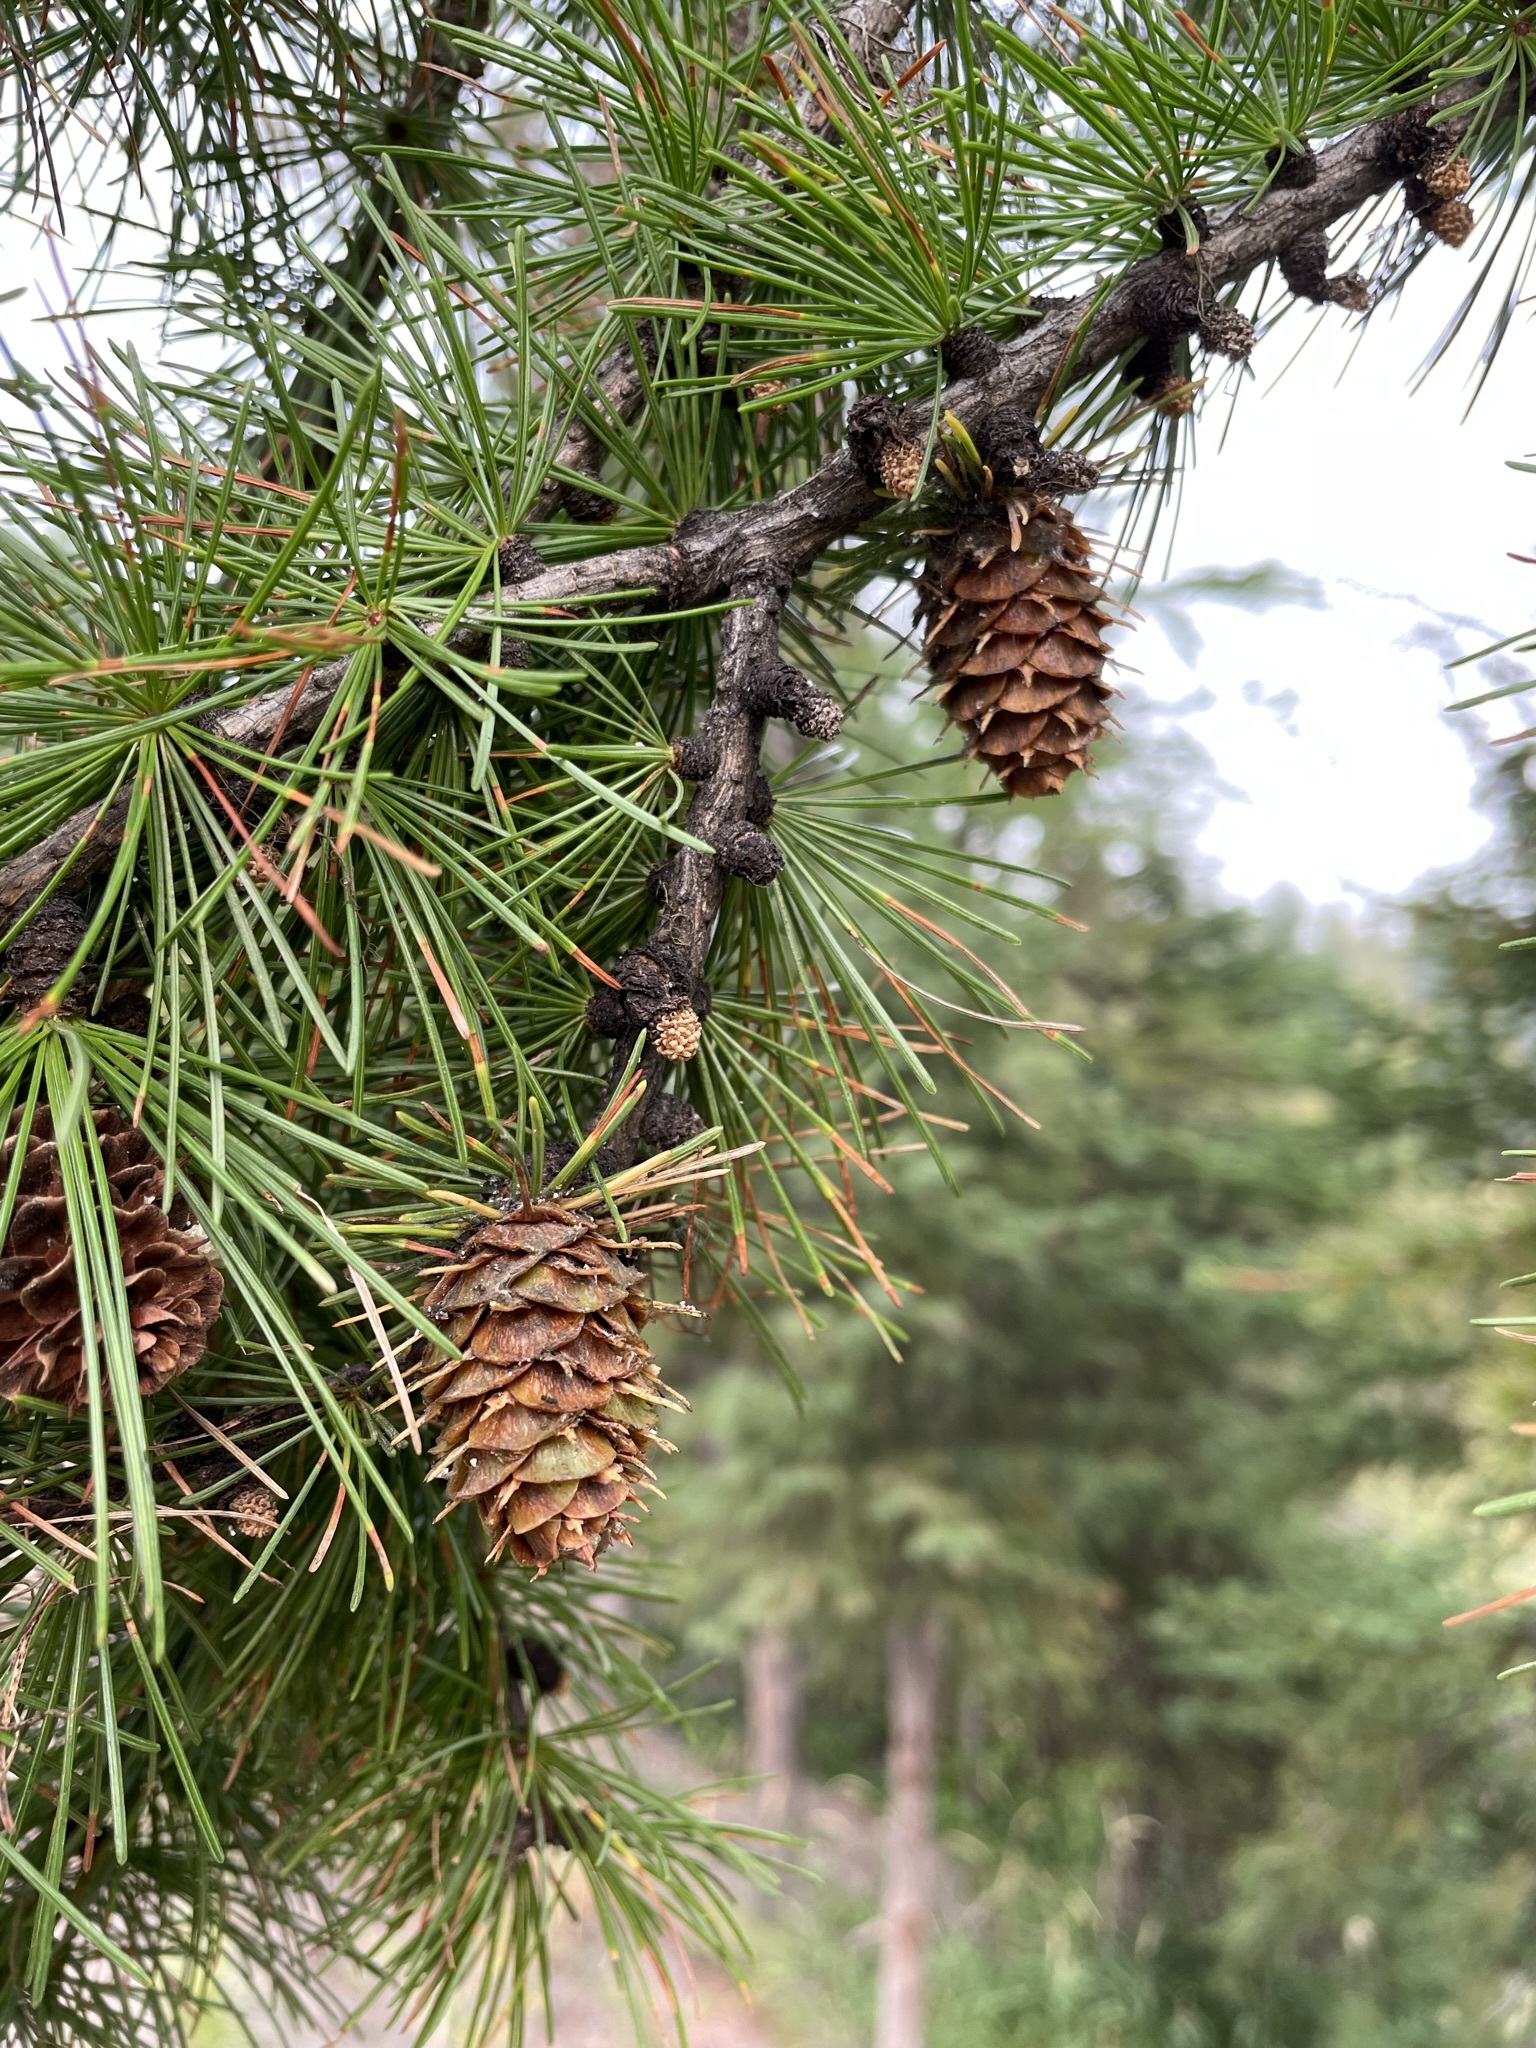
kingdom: Plantae
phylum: Tracheophyta
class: Pinopsida
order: Pinales
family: Pinaceae
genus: Larix
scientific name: Larix occidentalis
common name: Western larch
